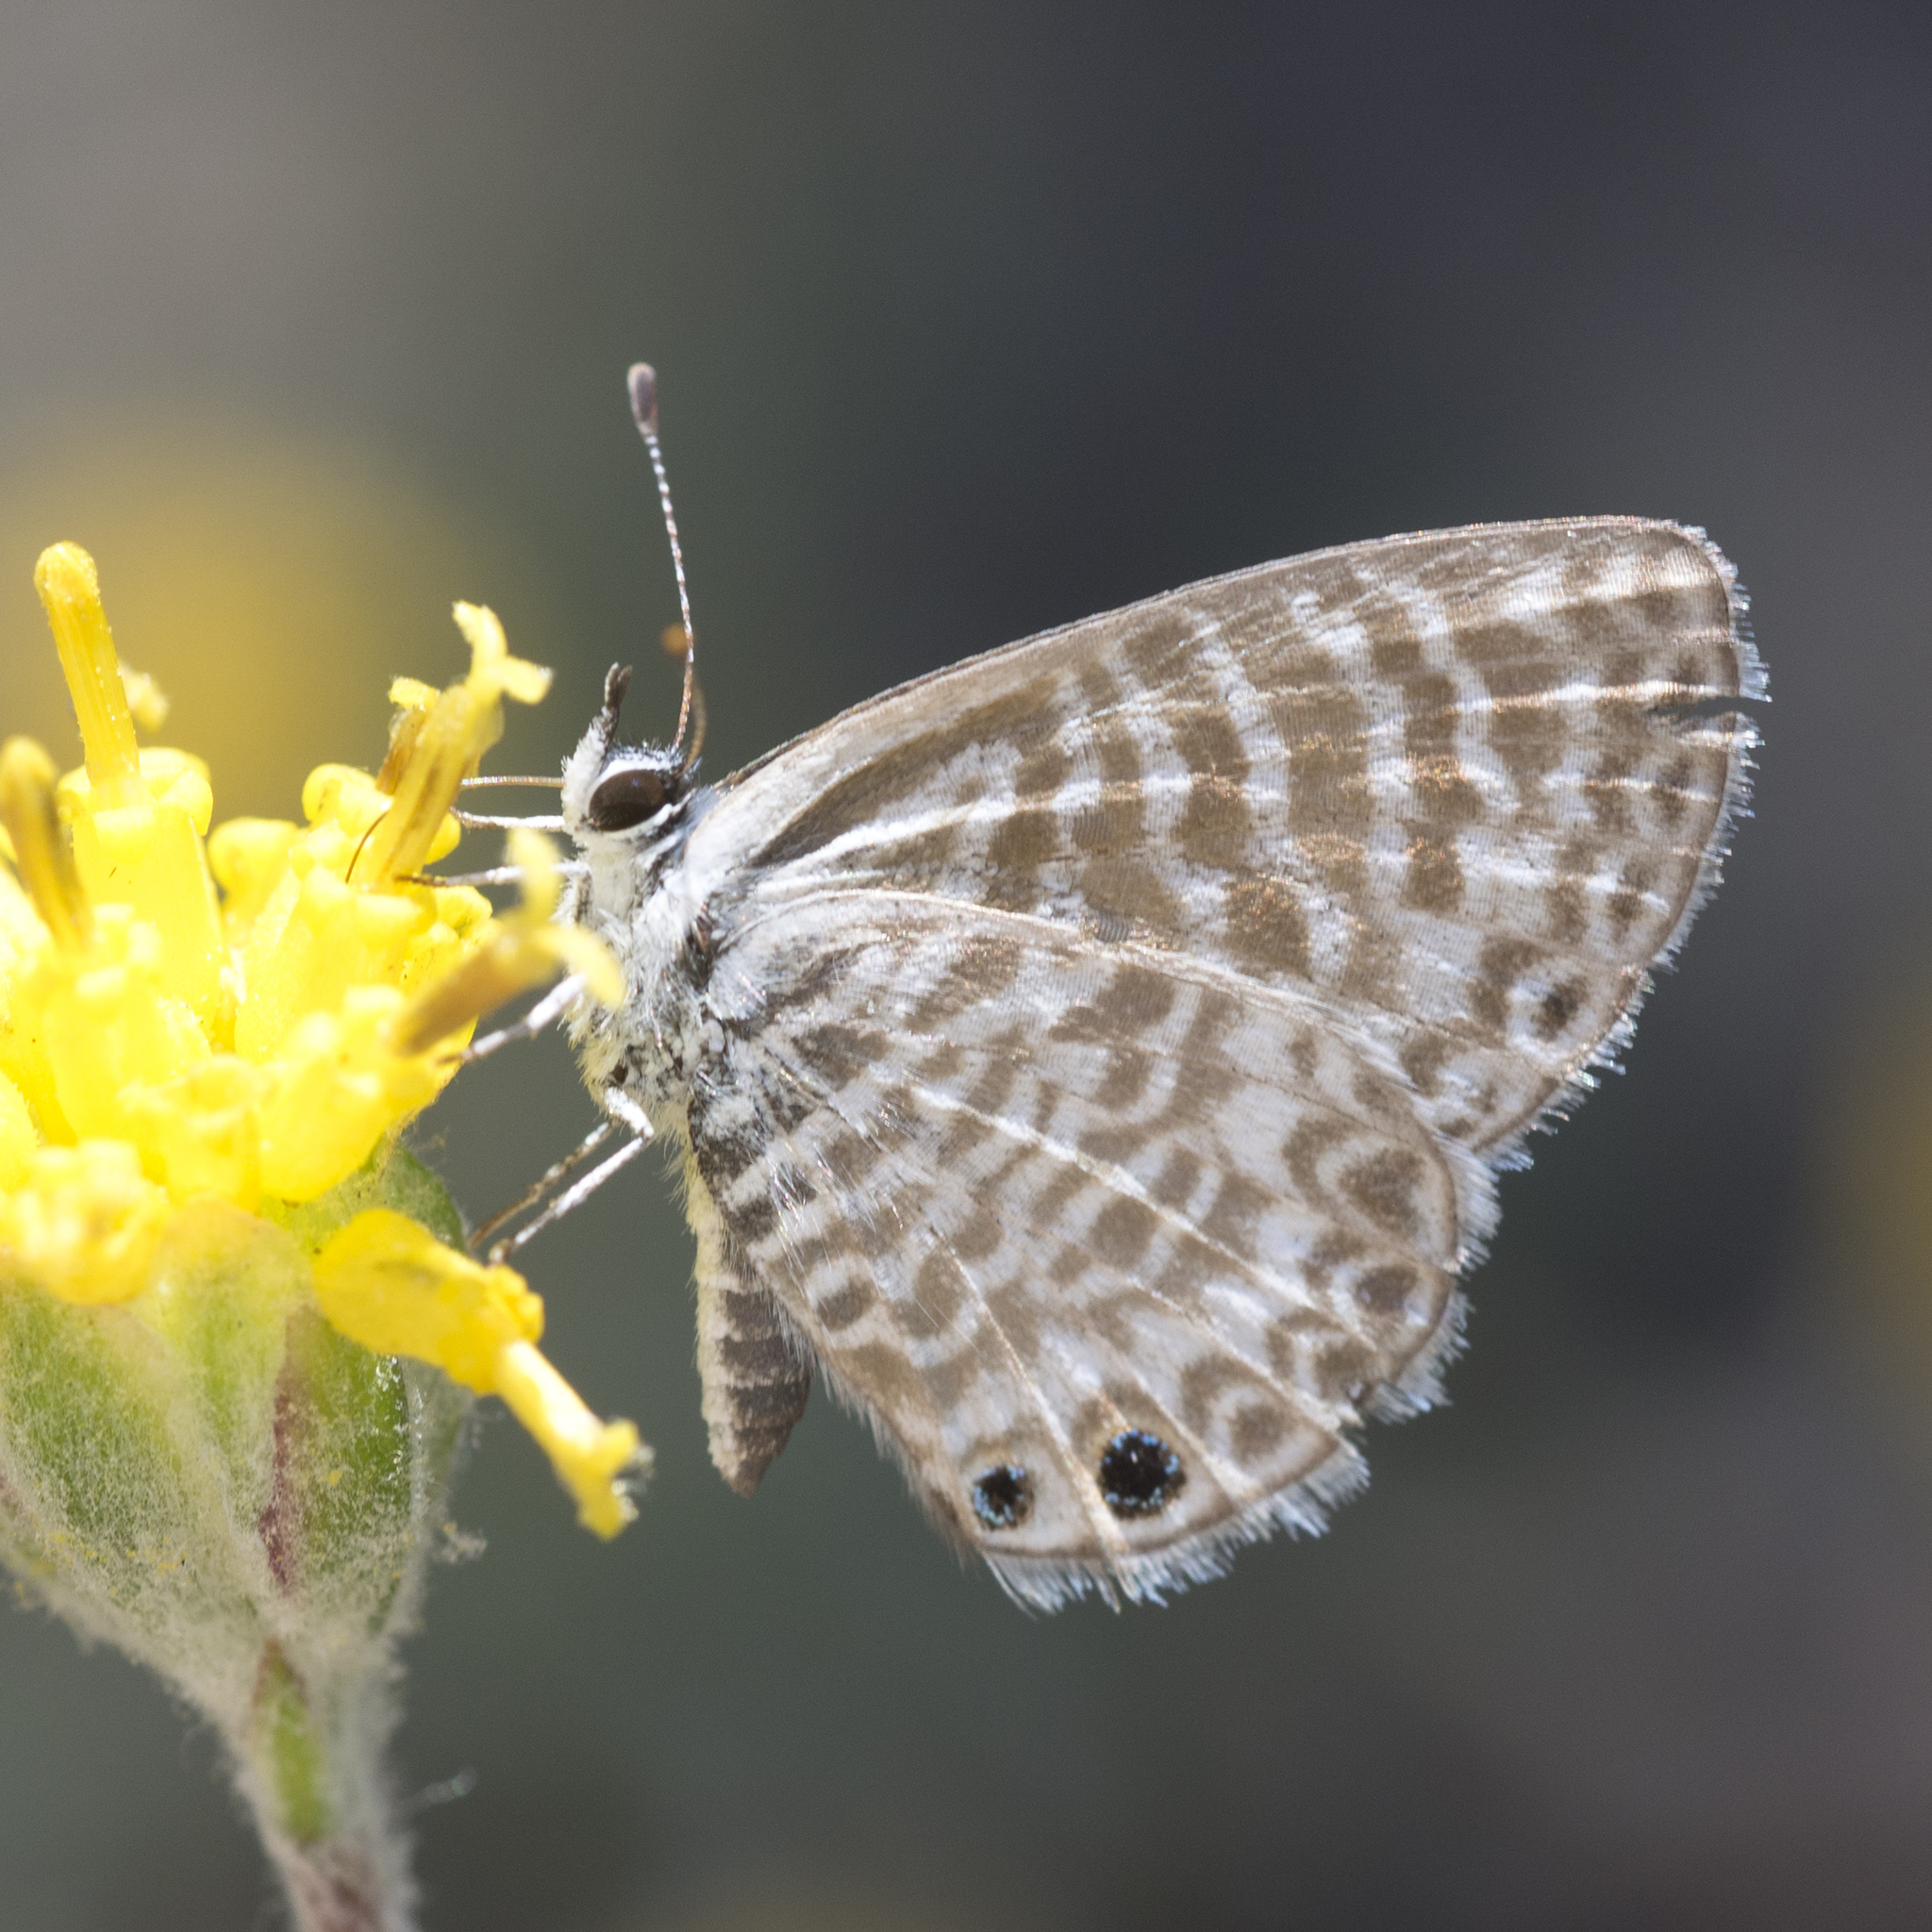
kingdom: Animalia
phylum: Arthropoda
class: Insecta
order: Lepidoptera
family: Lycaenidae
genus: Leptotes
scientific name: Leptotes marina
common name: Marine blue
